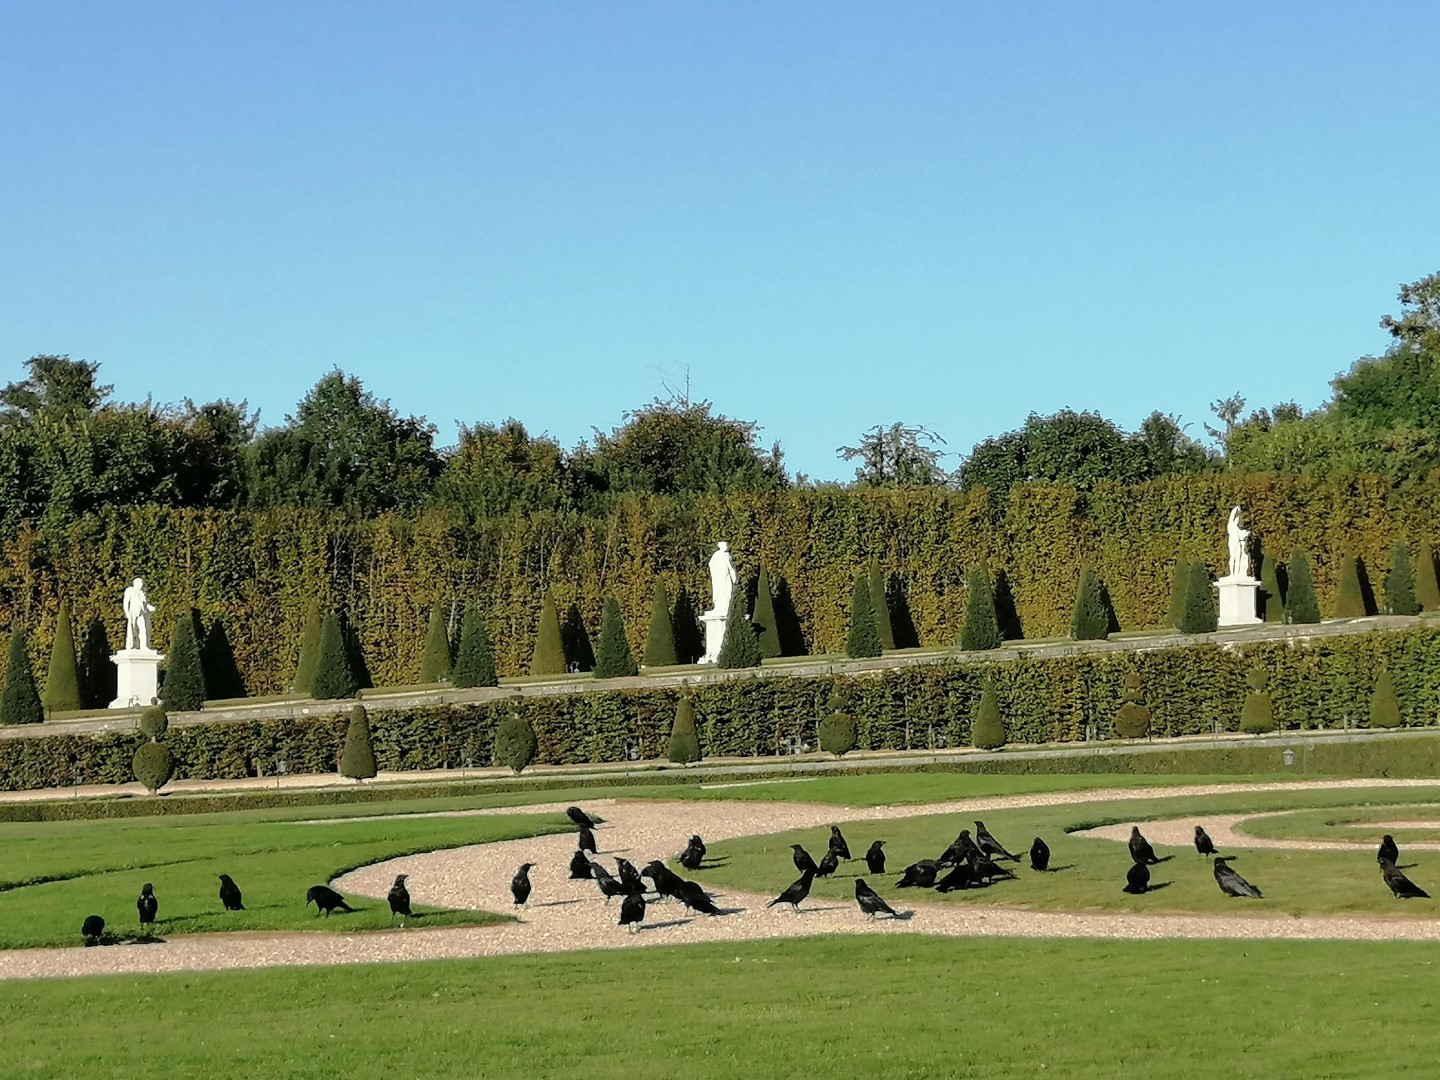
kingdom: Animalia
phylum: Chordata
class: Aves
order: Passeriformes
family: Corvidae
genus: Corvus
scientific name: Corvus corone
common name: Carrion crow
